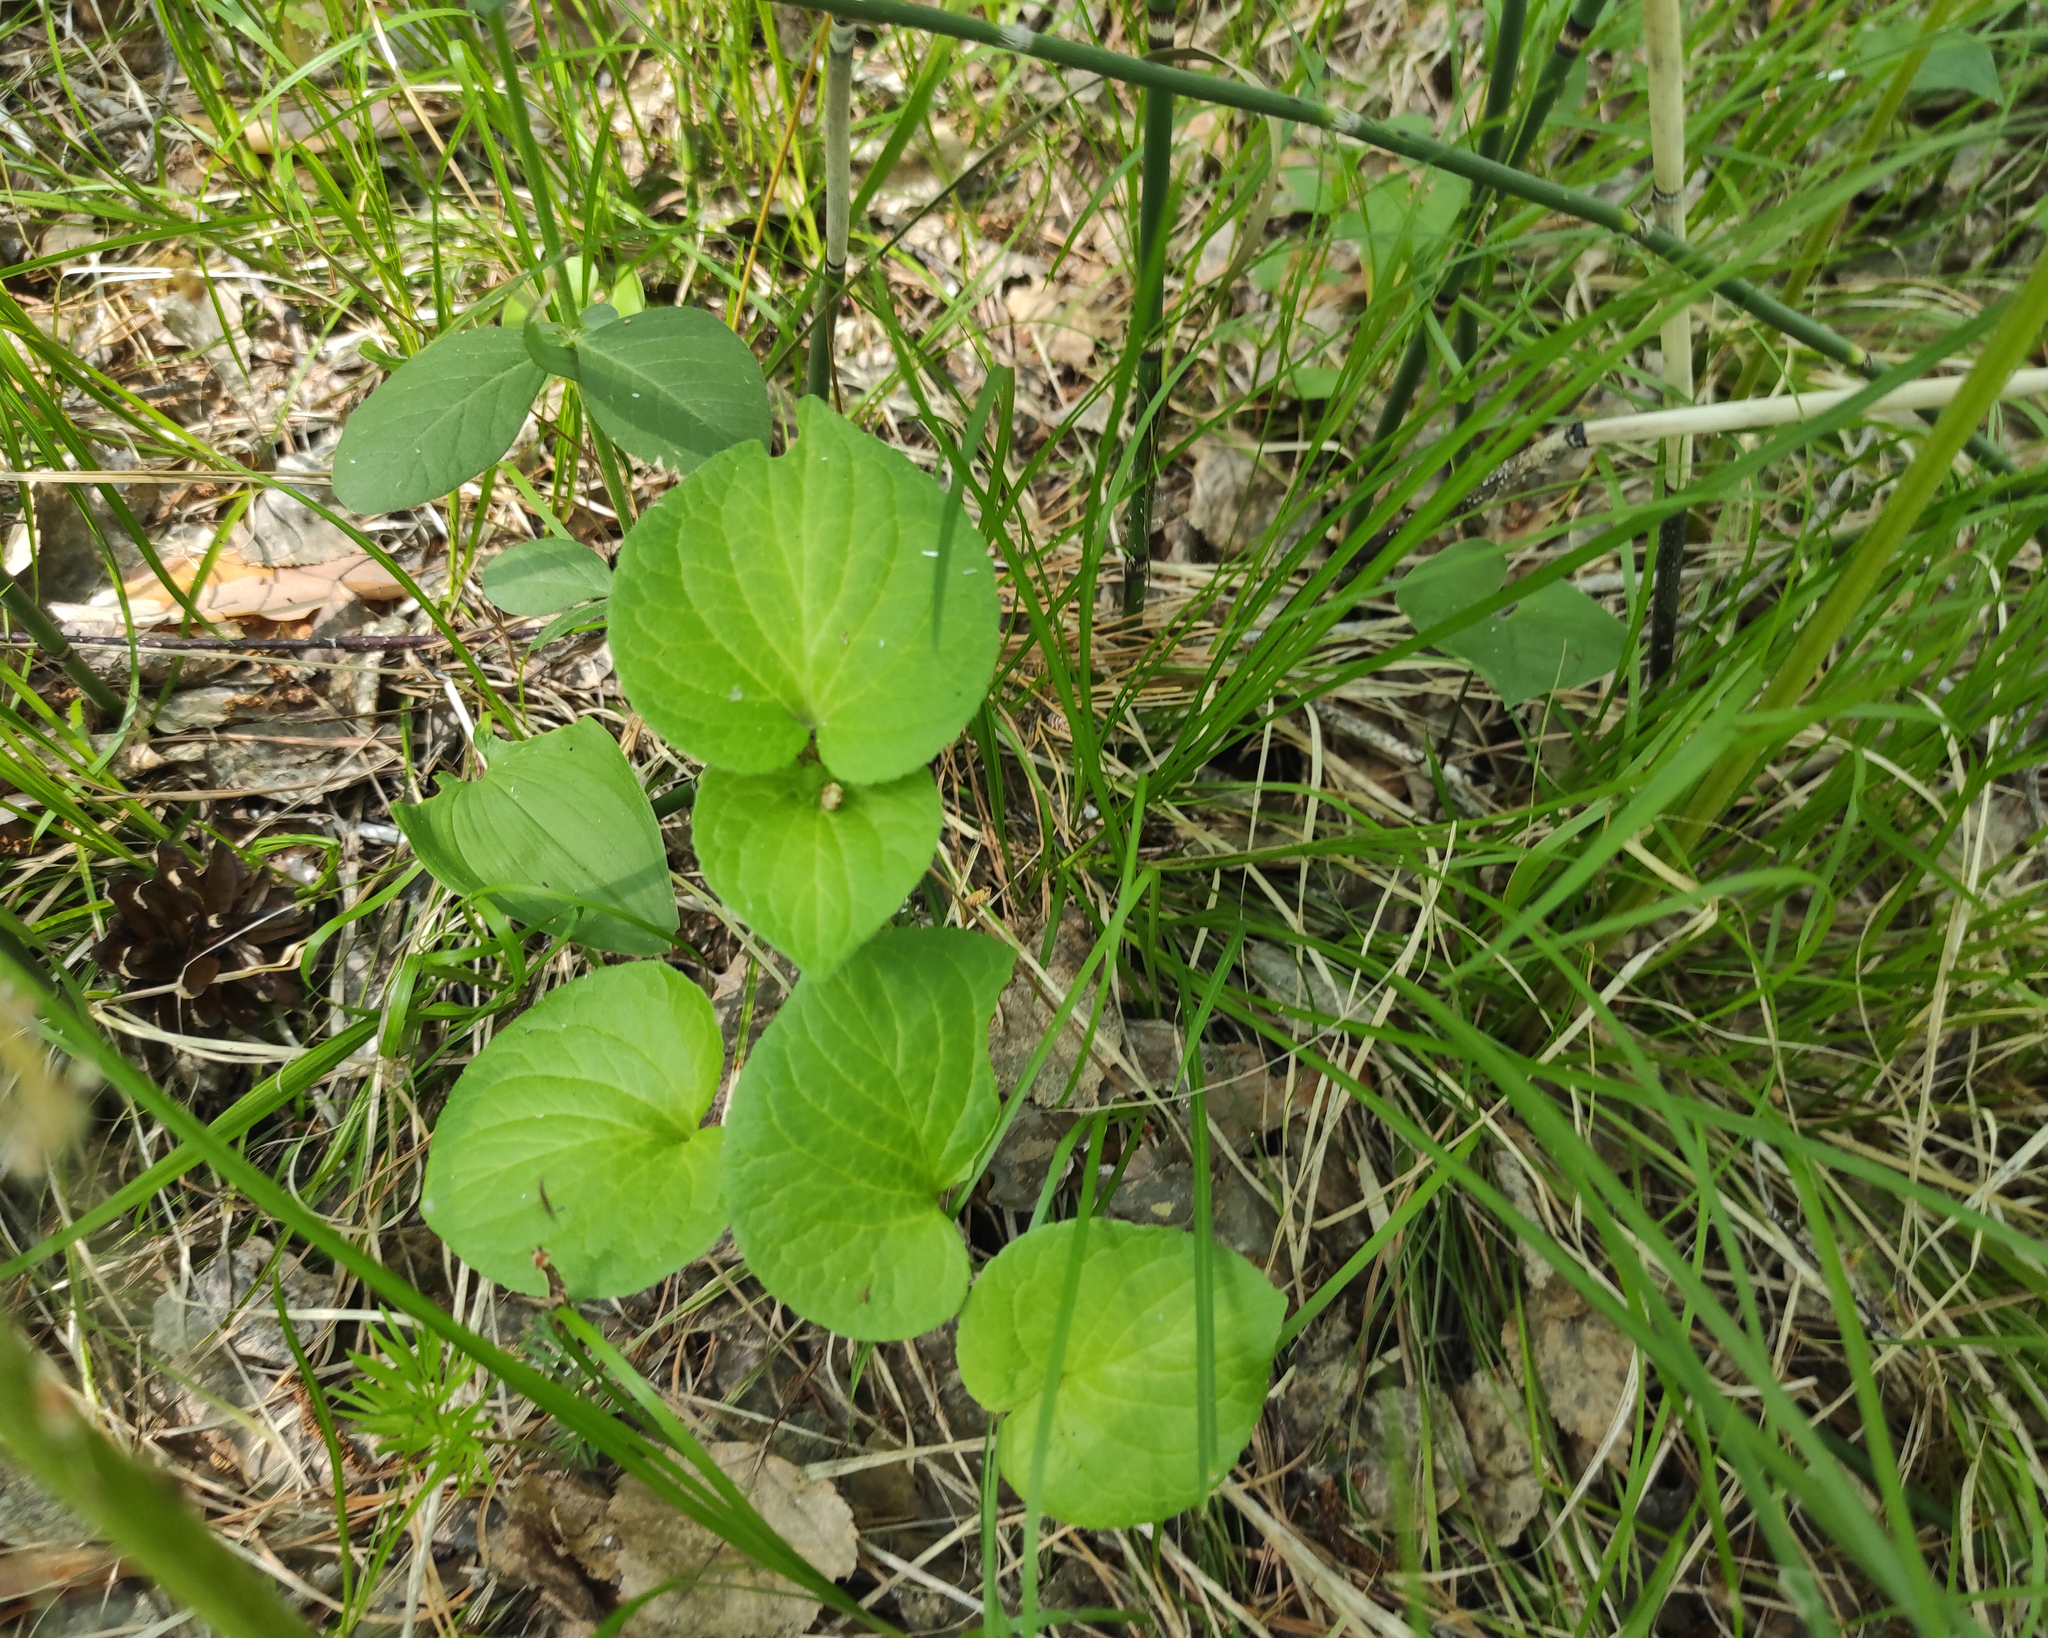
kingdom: Plantae
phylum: Tracheophyta
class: Magnoliopsida
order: Fabales
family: Fabaceae
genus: Vicia
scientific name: Vicia unijuga
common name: Two-leaf vetch
